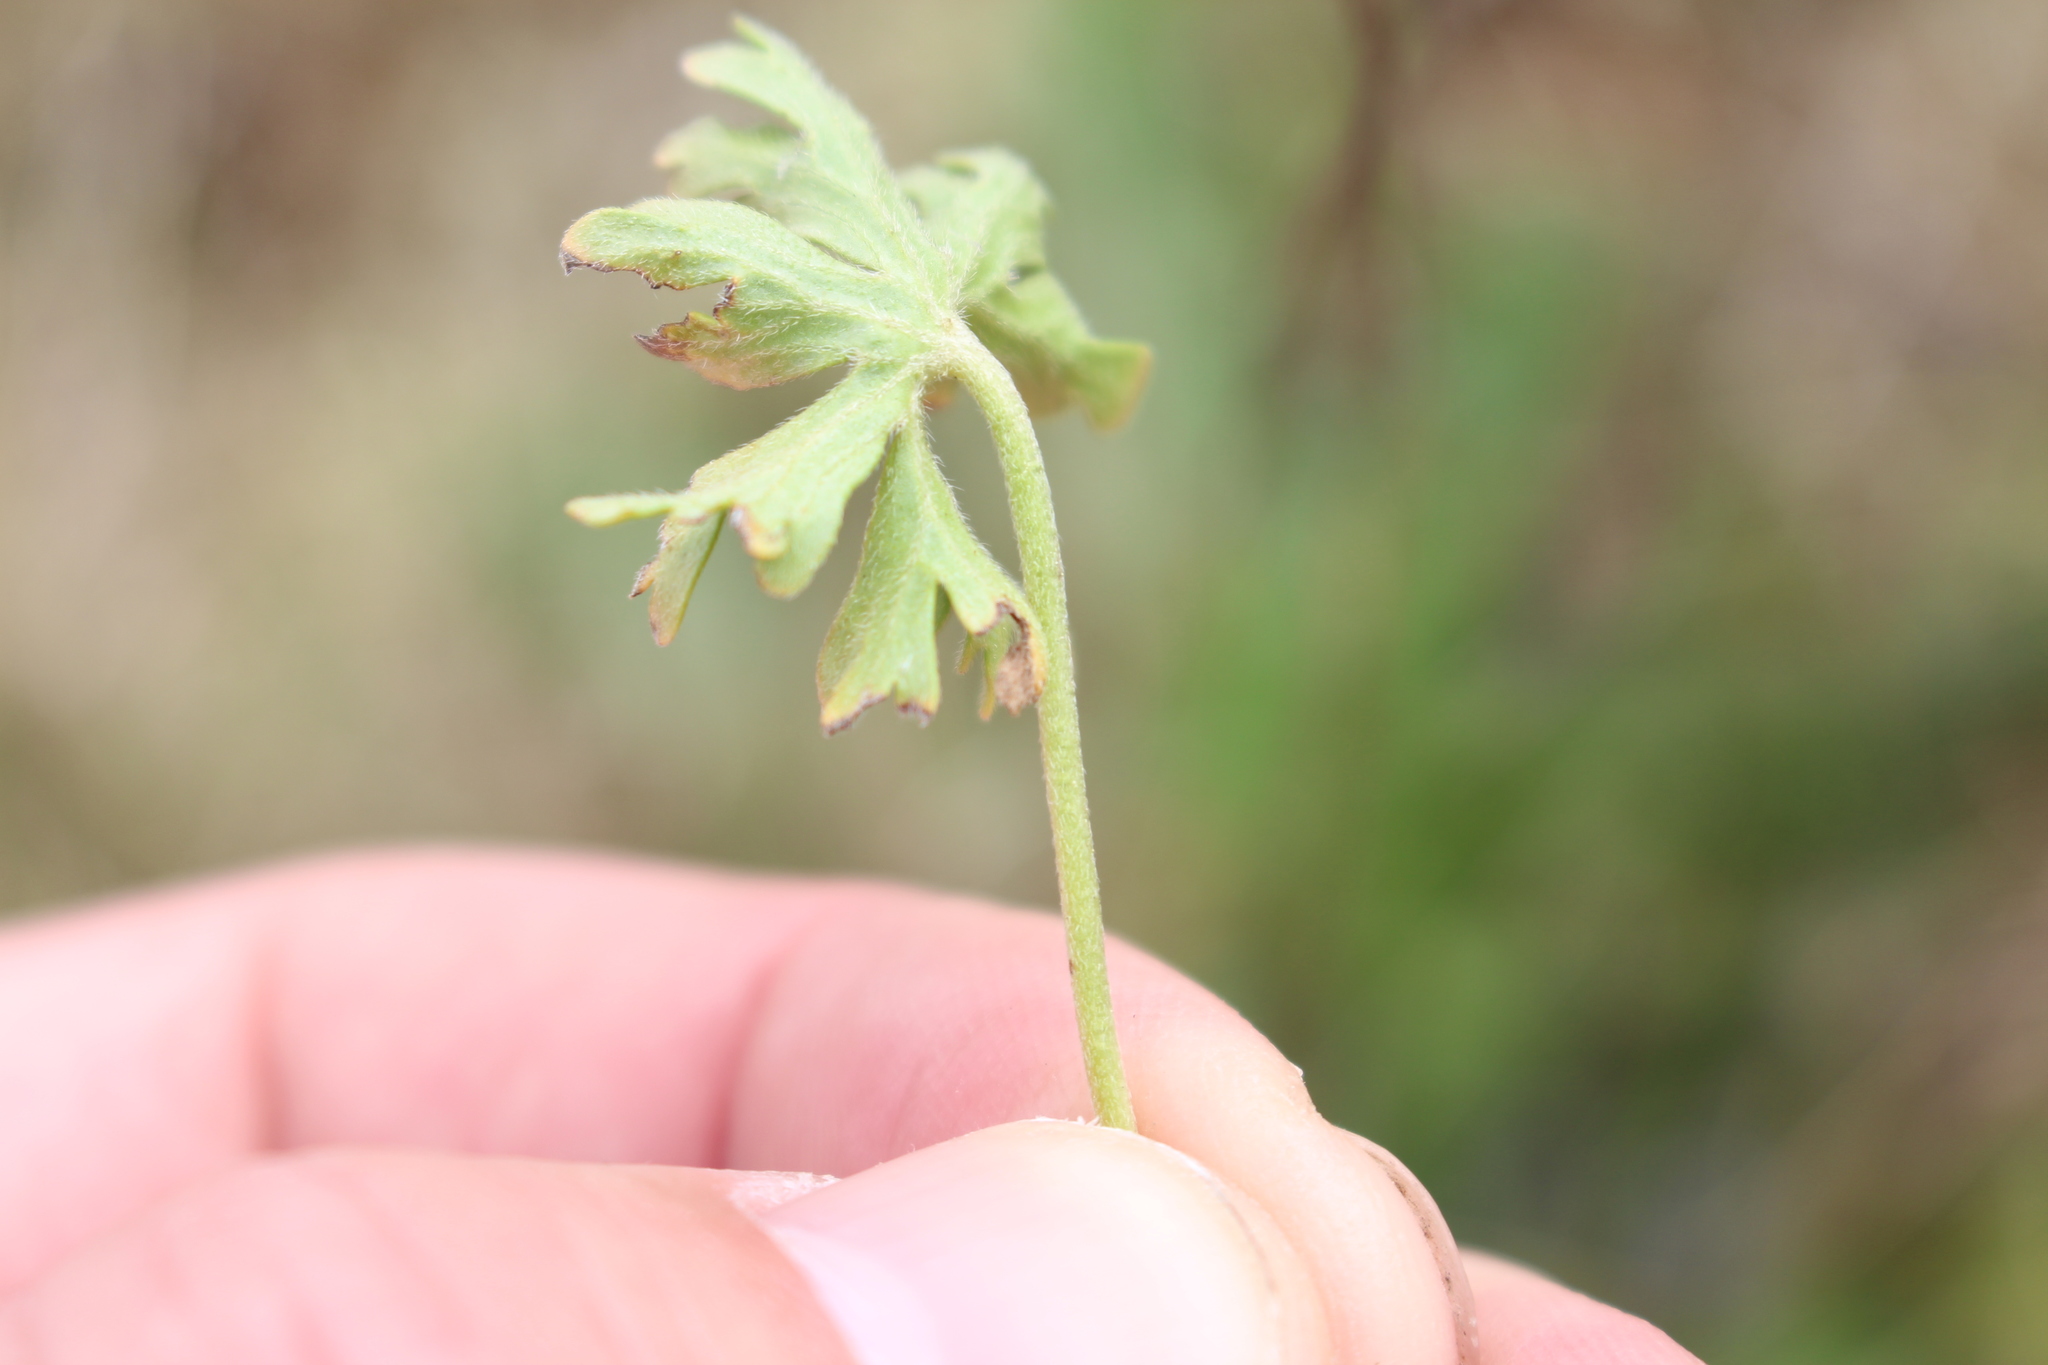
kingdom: Plantae
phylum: Tracheophyta
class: Magnoliopsida
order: Geraniales
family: Geraniaceae
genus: Geranium
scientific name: Geranium retrorsum
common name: New zealand geranium
